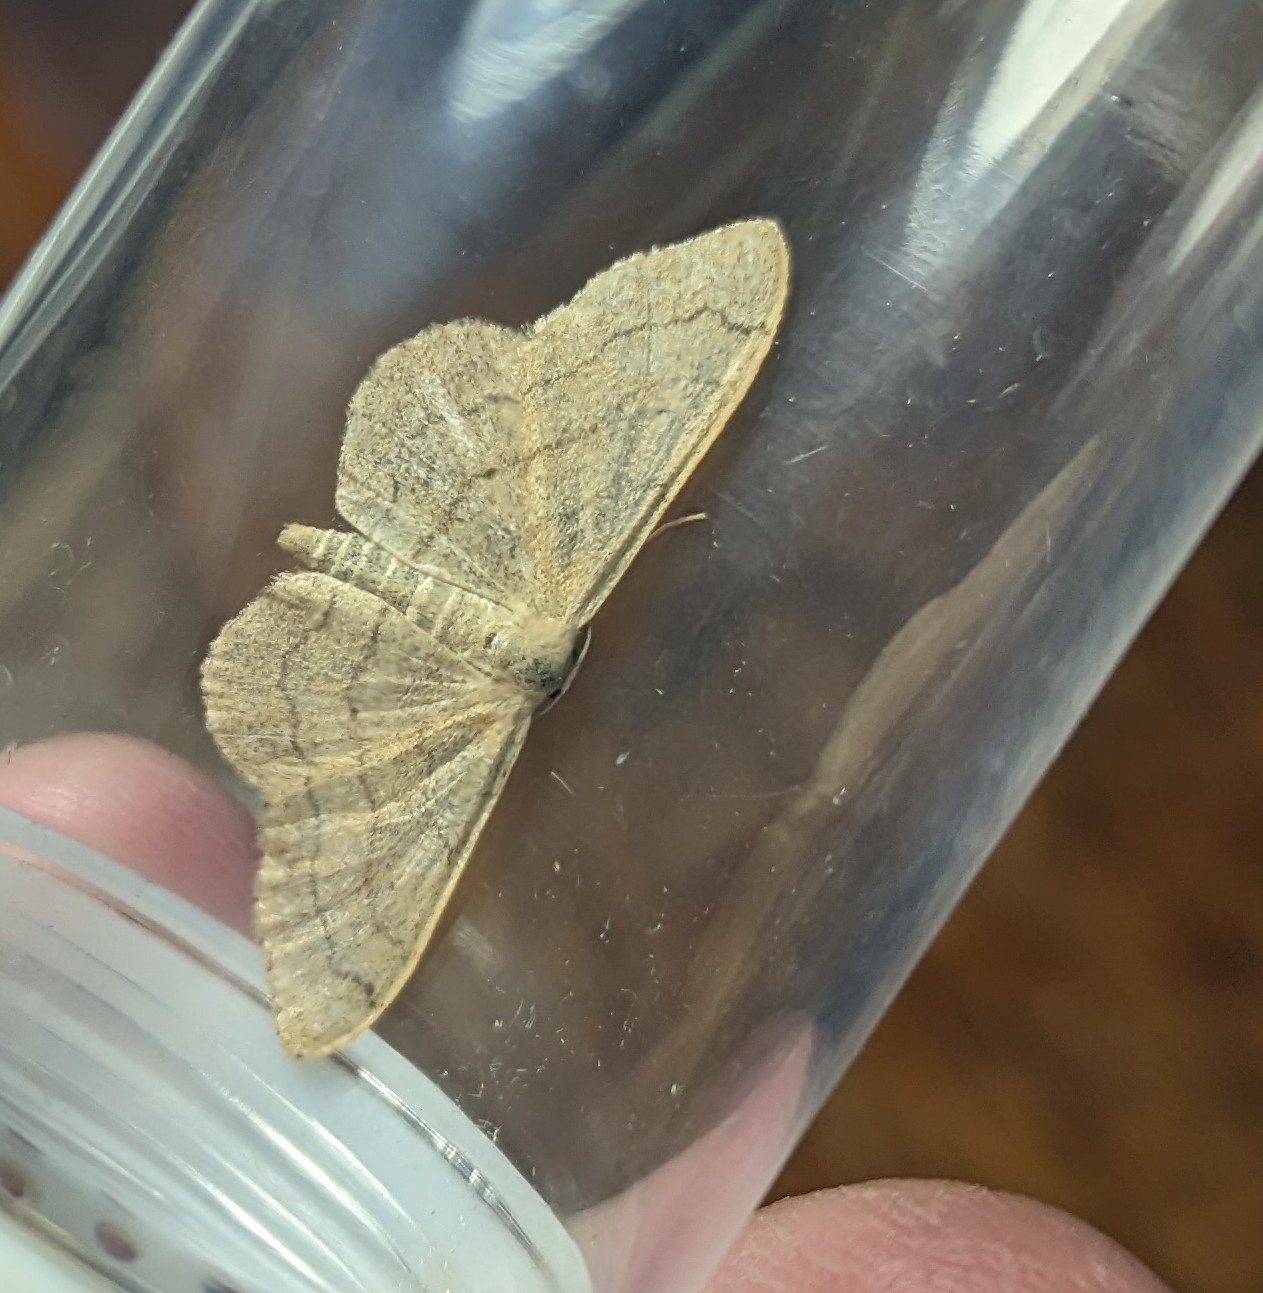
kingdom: Animalia
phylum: Arthropoda
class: Insecta
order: Lepidoptera
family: Geometridae
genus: Idaea
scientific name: Idaea aversata
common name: Riband wave
